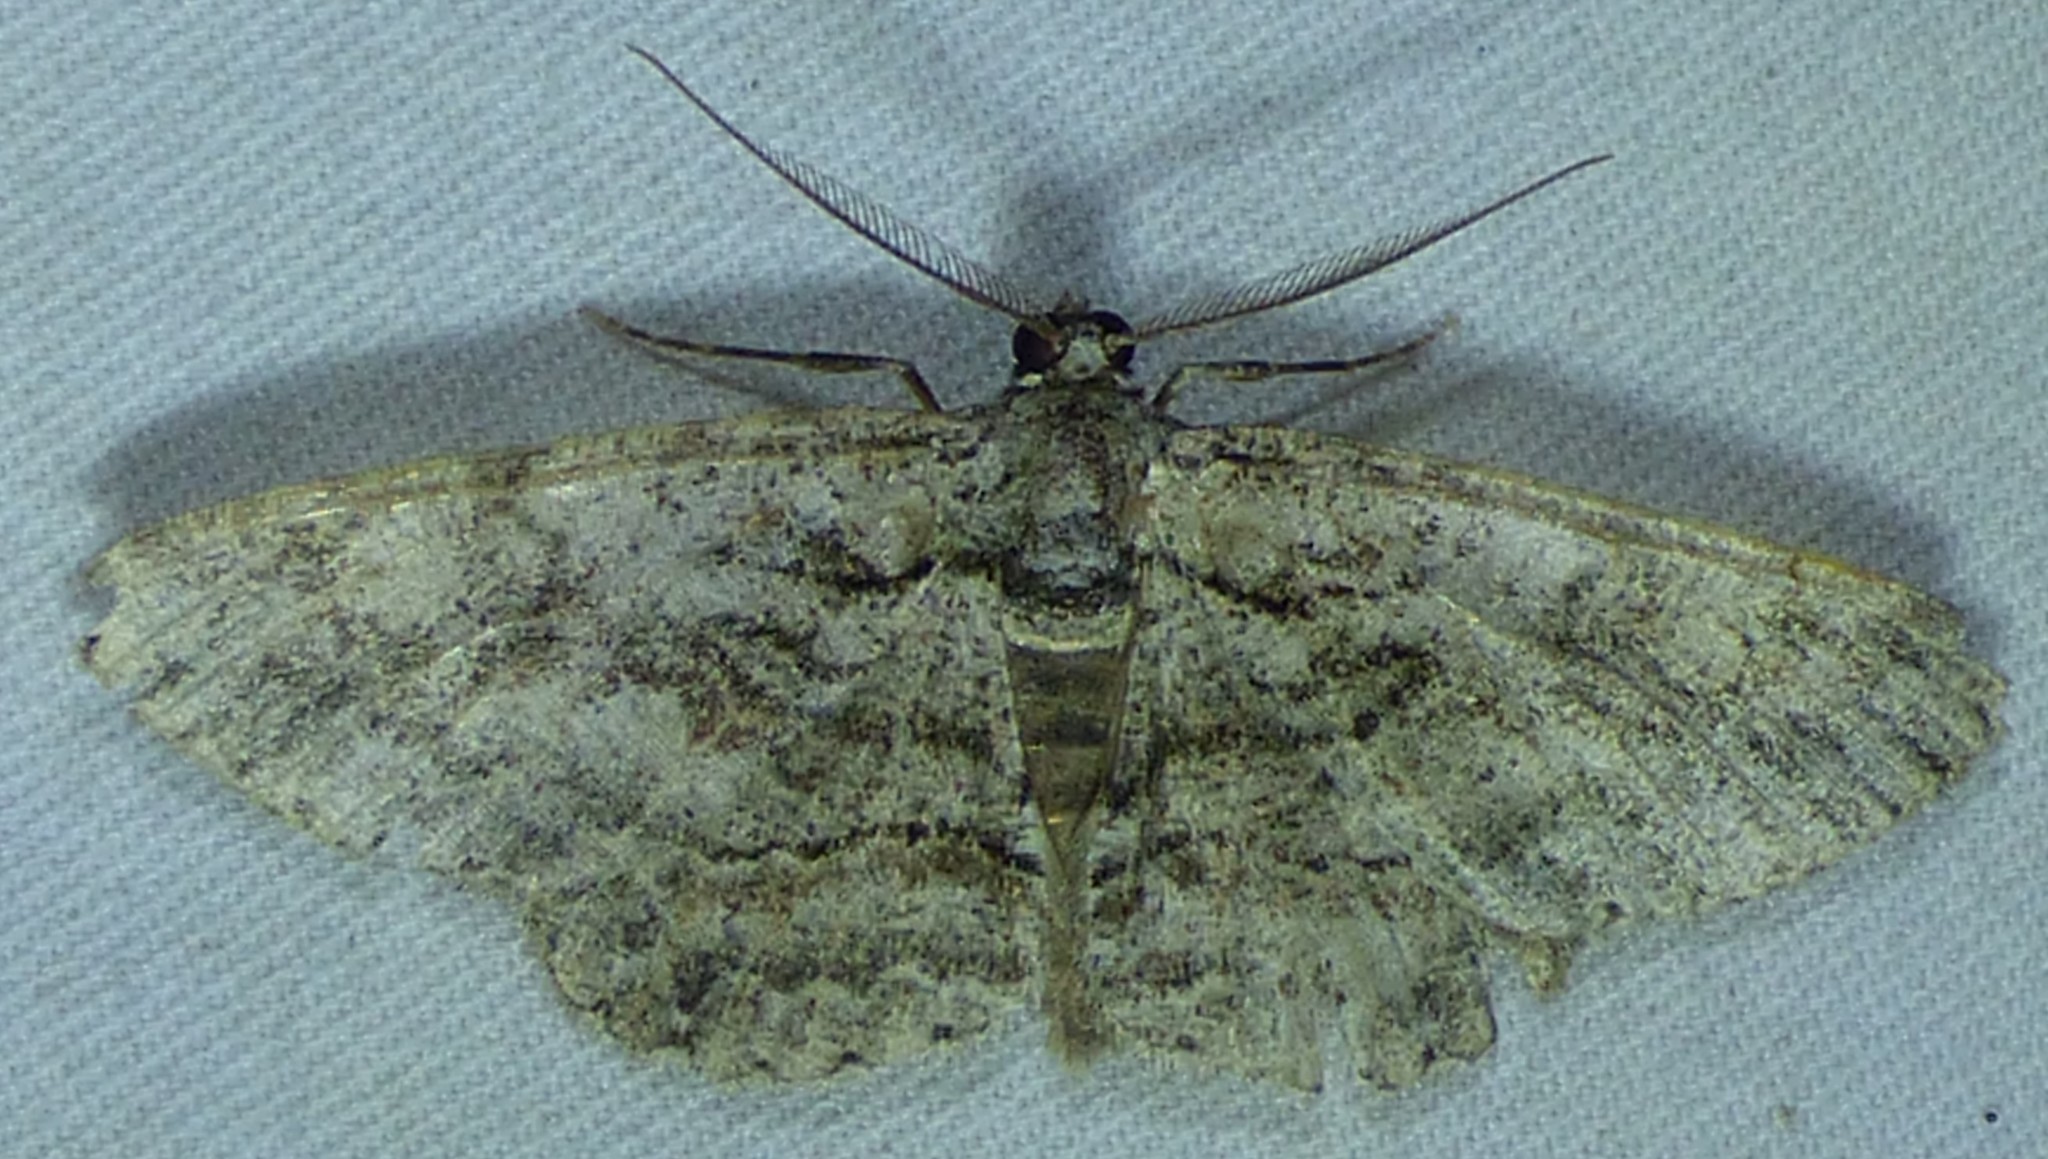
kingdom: Animalia
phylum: Arthropoda
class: Insecta
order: Lepidoptera
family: Geometridae
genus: Anavitrinella
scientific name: Anavitrinella pampinaria
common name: Common gray
